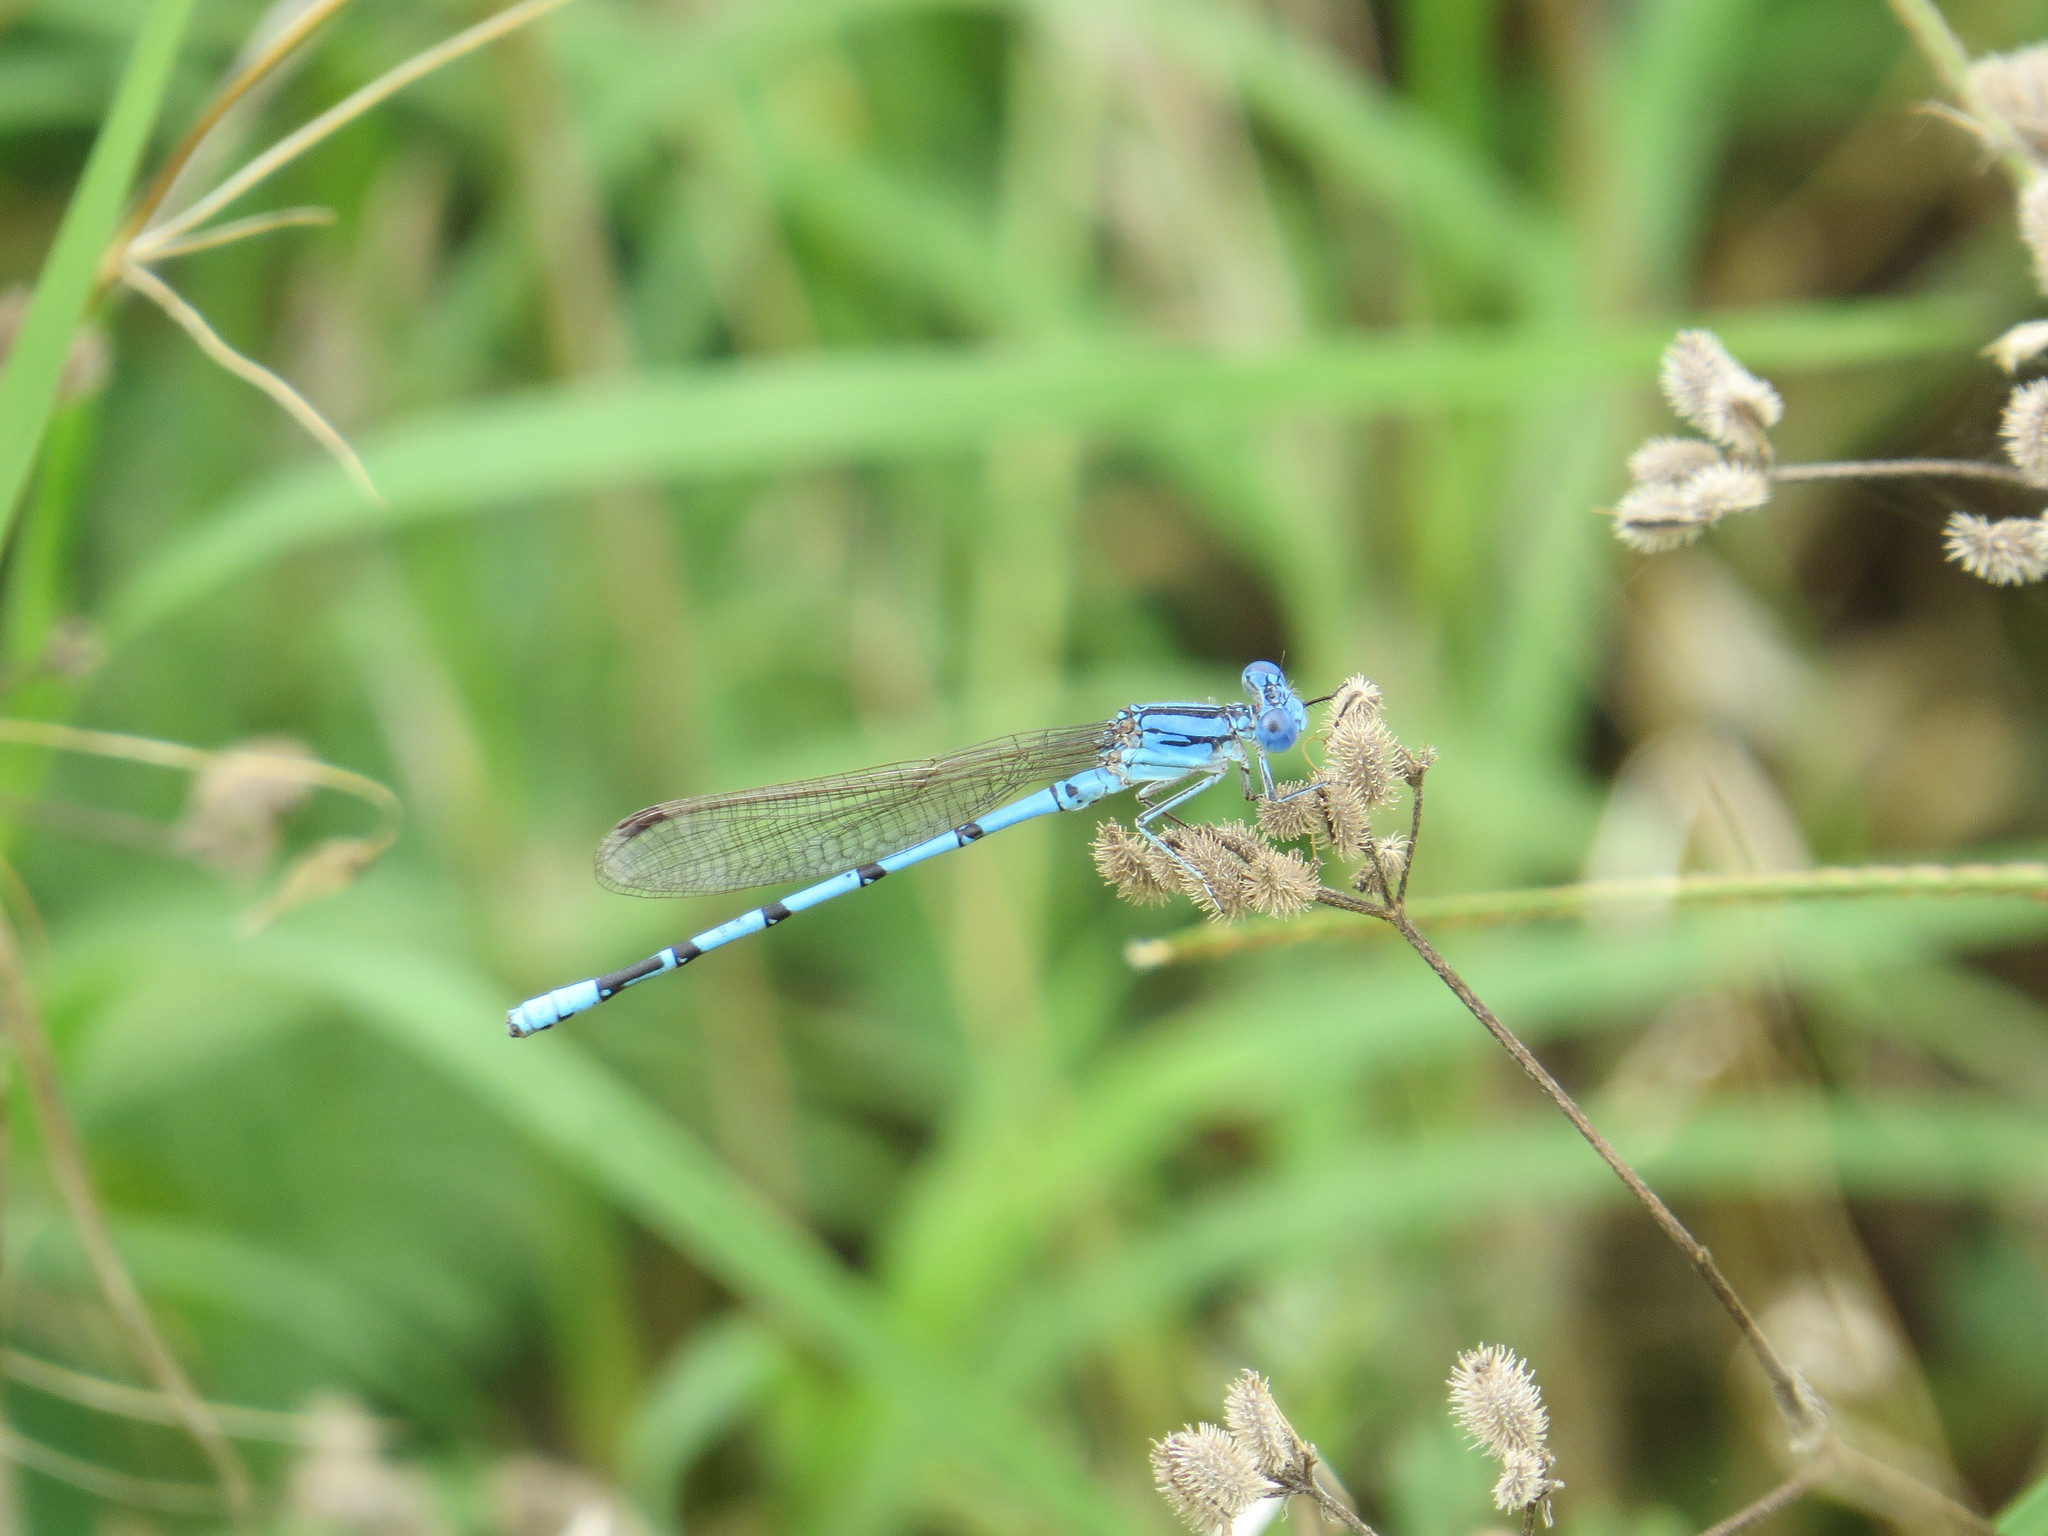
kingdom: Animalia
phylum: Arthropoda
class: Insecta
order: Odonata
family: Coenagrionidae
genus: Argia
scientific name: Argia nahuana
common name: Aztec dancer
